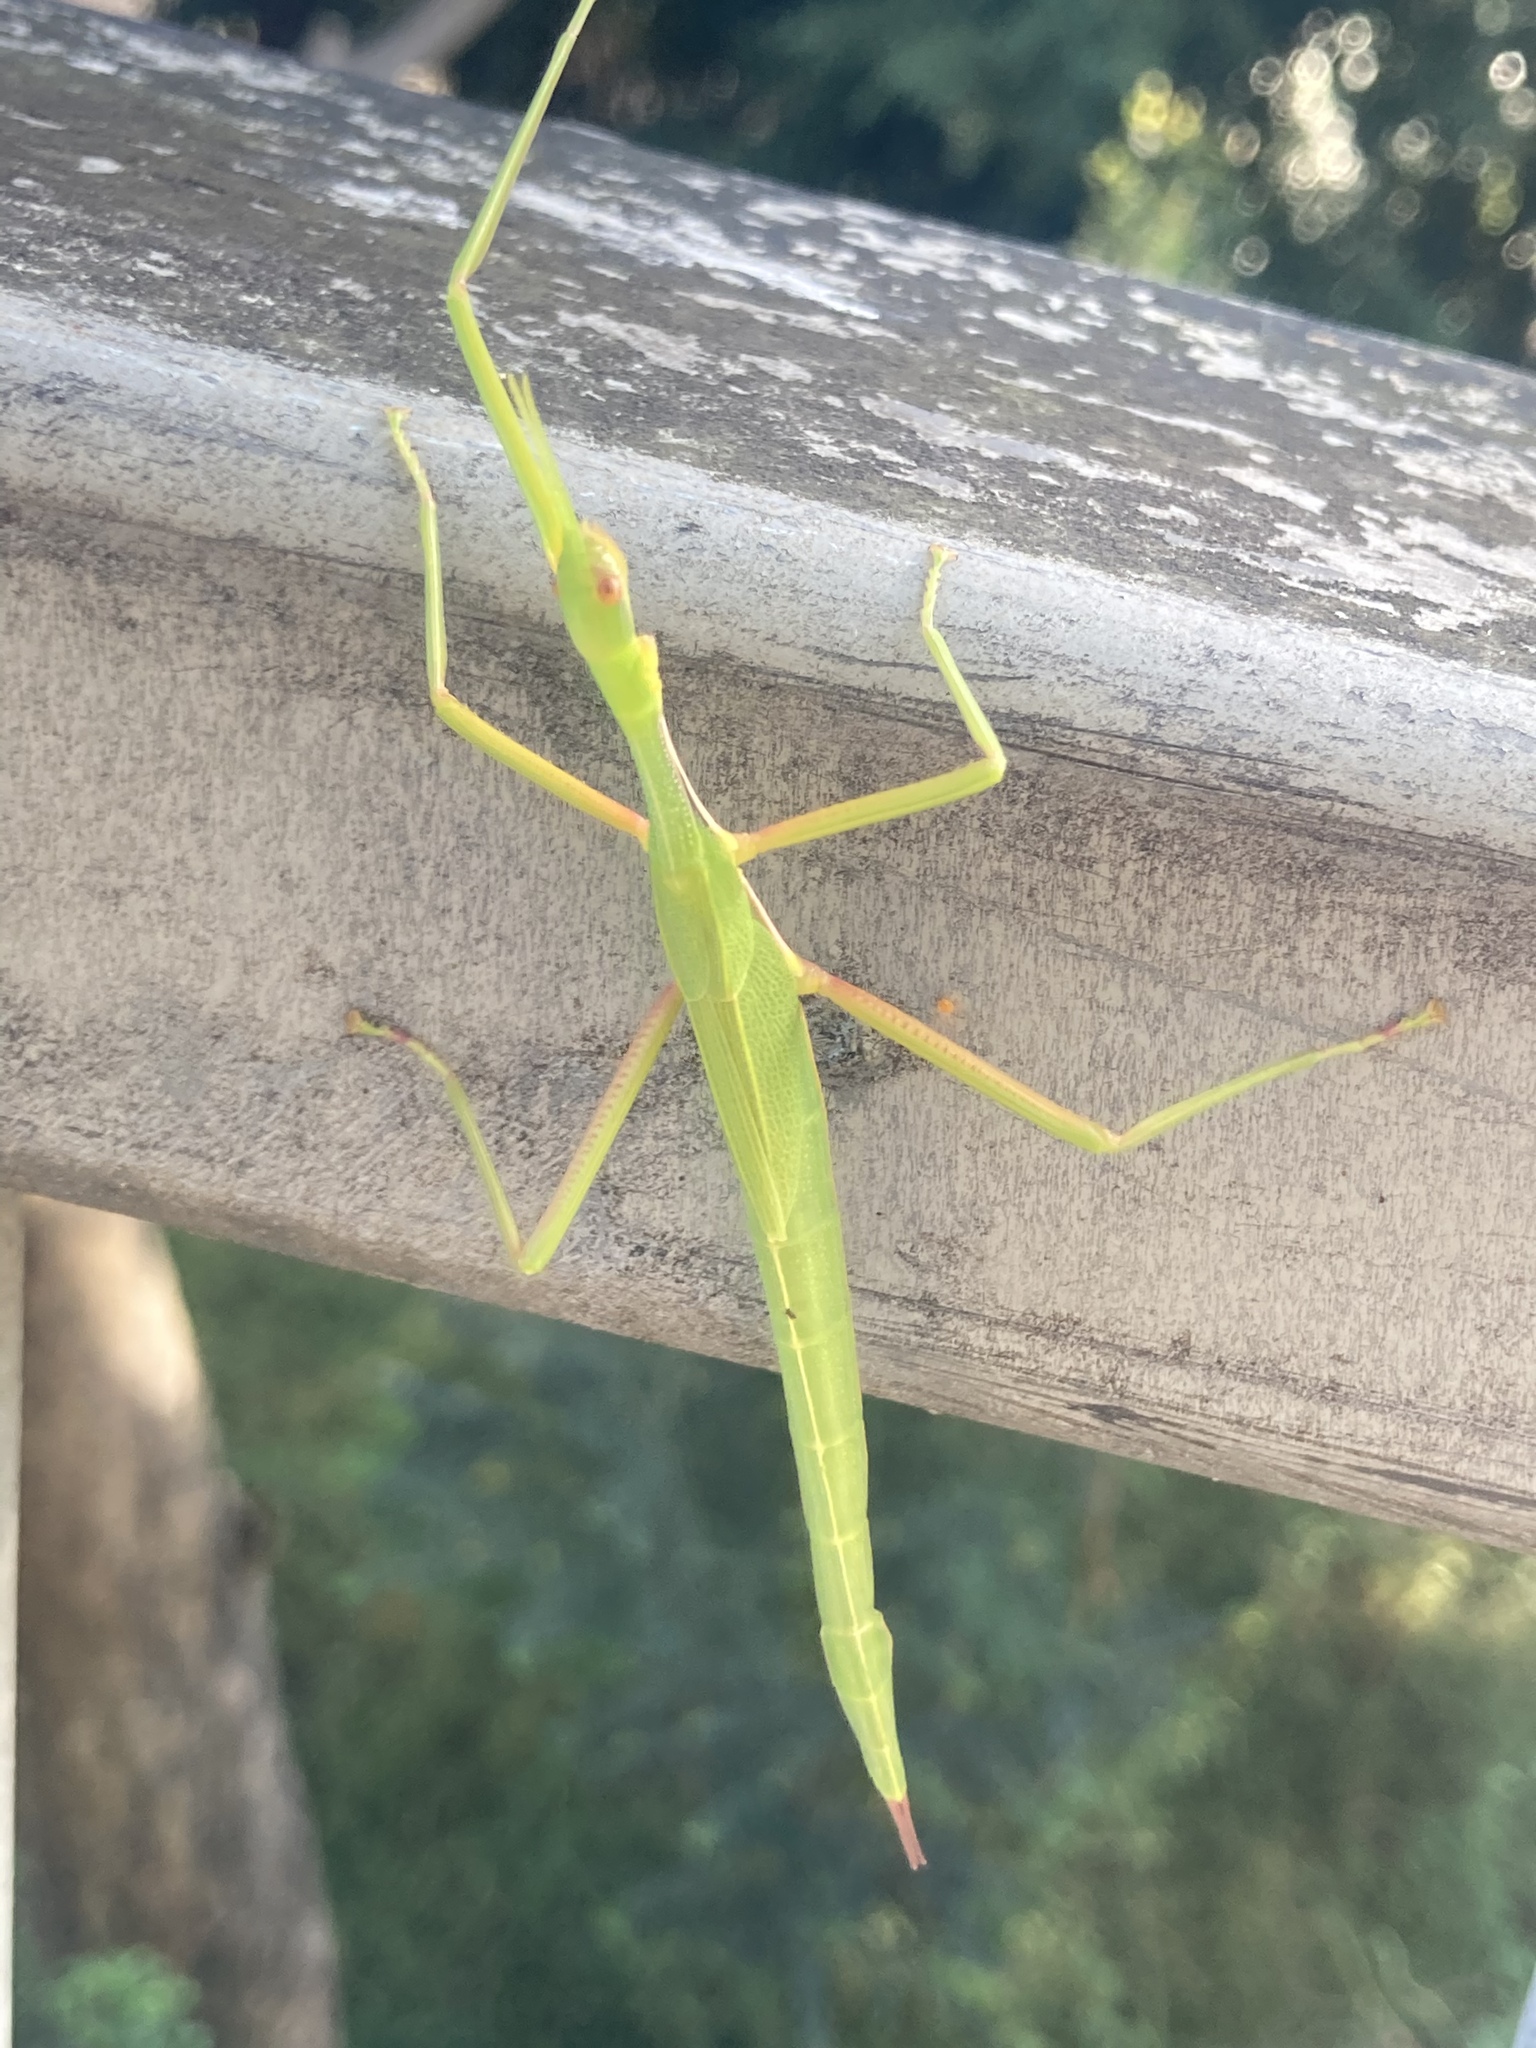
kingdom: Animalia
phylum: Arthropoda
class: Insecta
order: Phasmida
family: Phasmatidae
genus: Didymuria
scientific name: Didymuria violescens
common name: Spur-legged stick-insect
